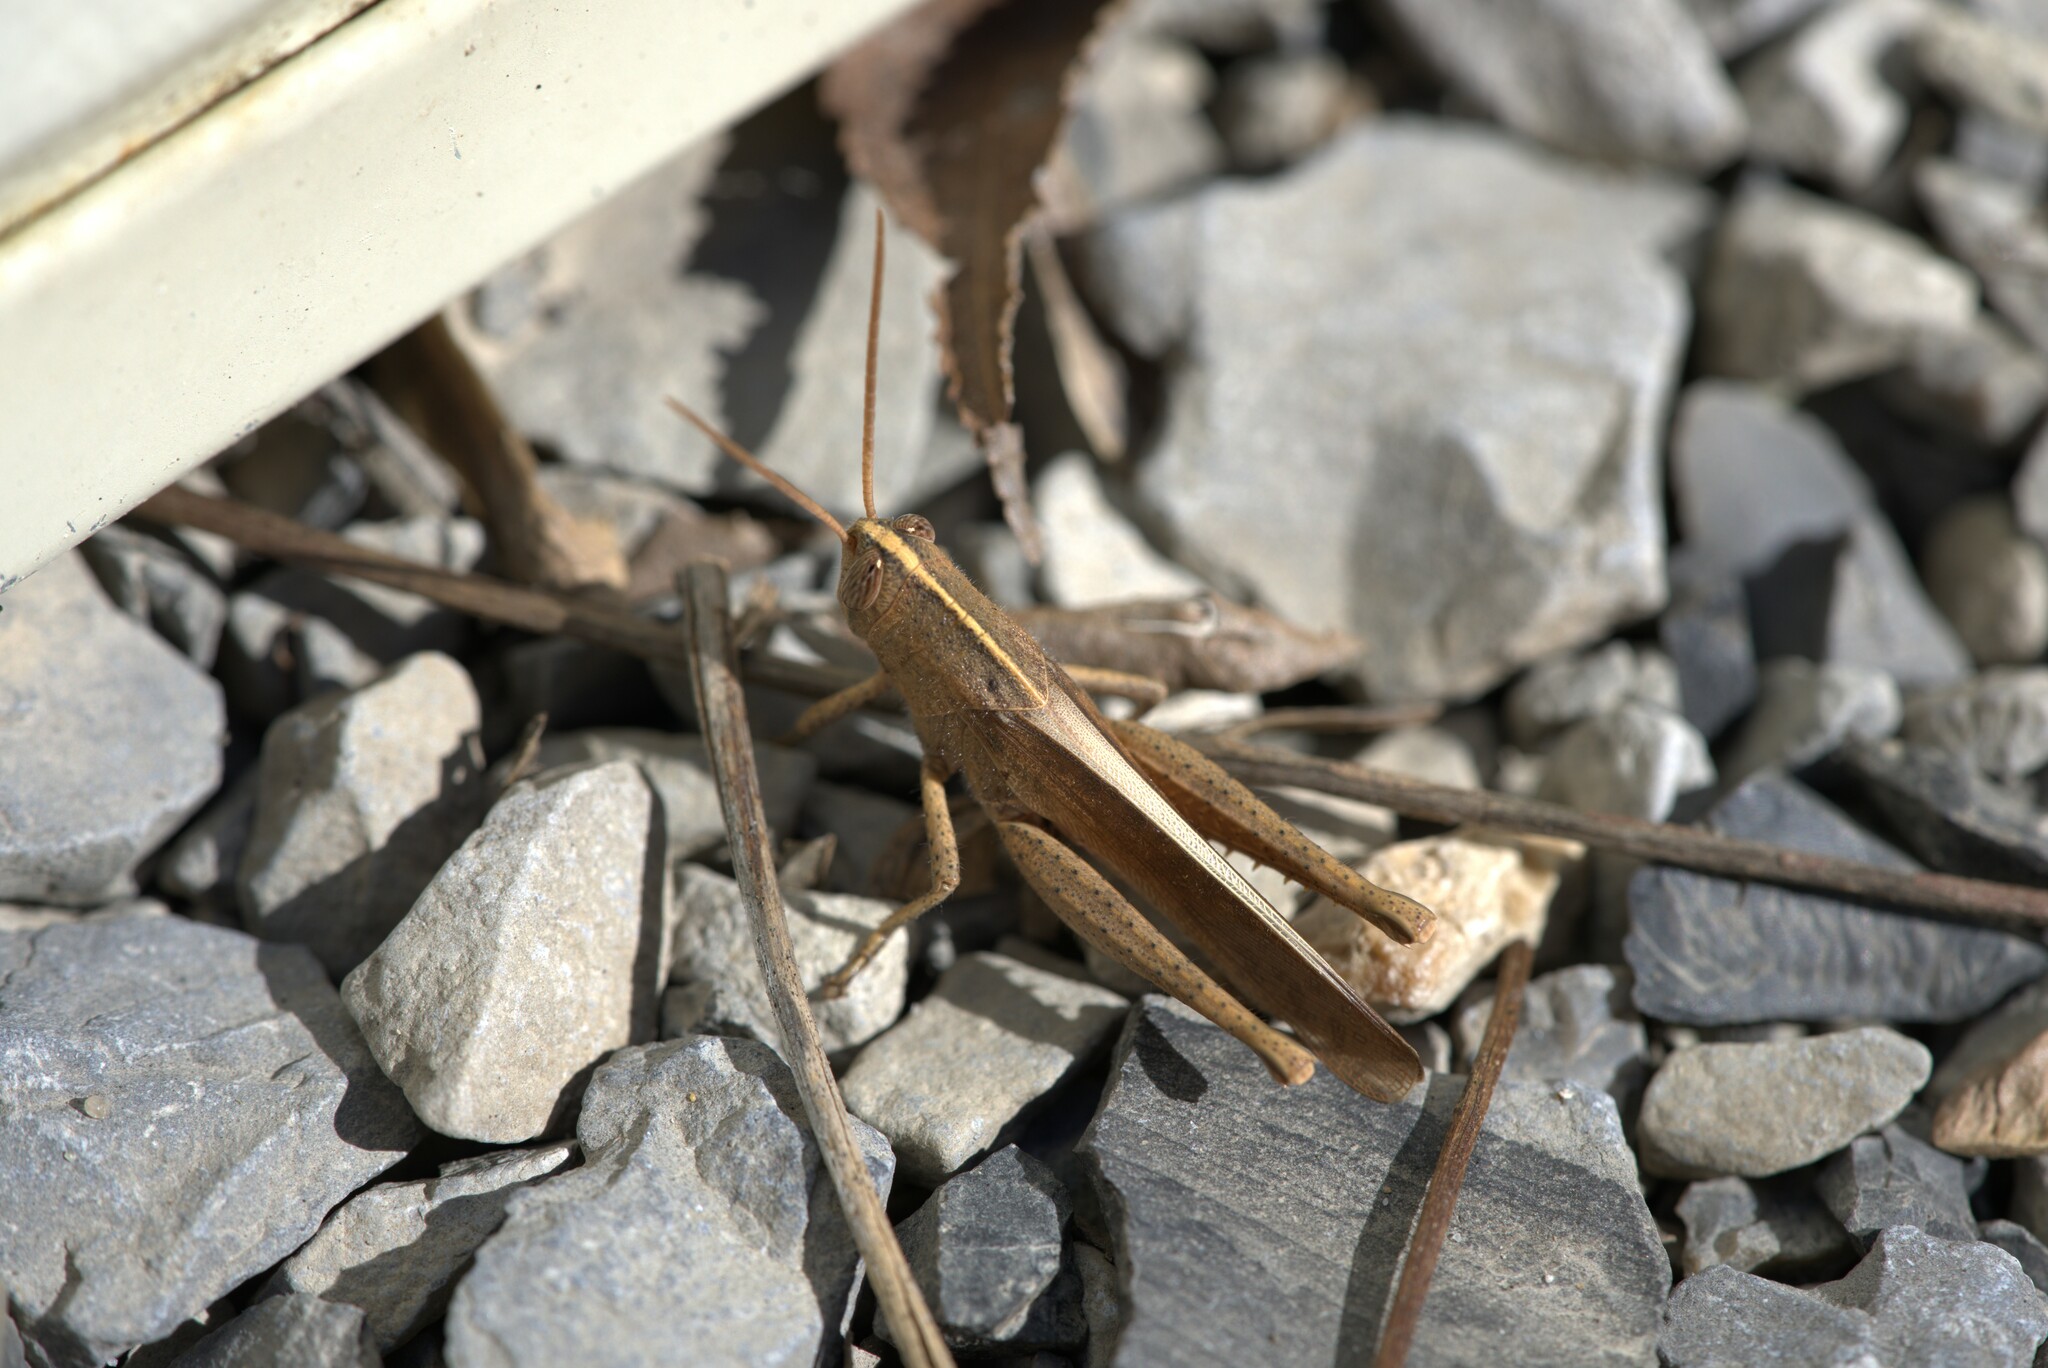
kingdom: Animalia
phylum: Arthropoda
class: Insecta
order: Orthoptera
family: Acrididae
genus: Schistocerca
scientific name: Schistocerca damnifica
